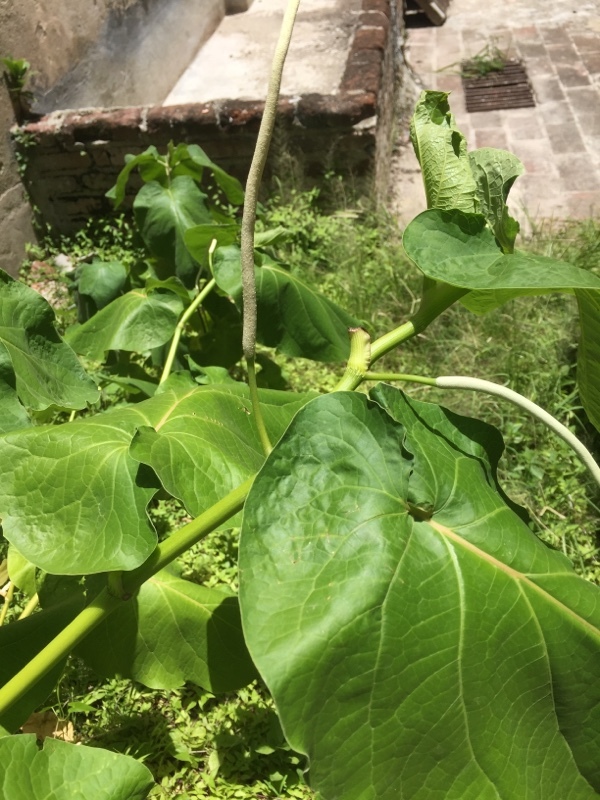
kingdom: Plantae
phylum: Tracheophyta
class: Magnoliopsida
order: Piperales
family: Piperaceae
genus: Piper
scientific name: Piper auritum
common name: Vera cruz pepper
